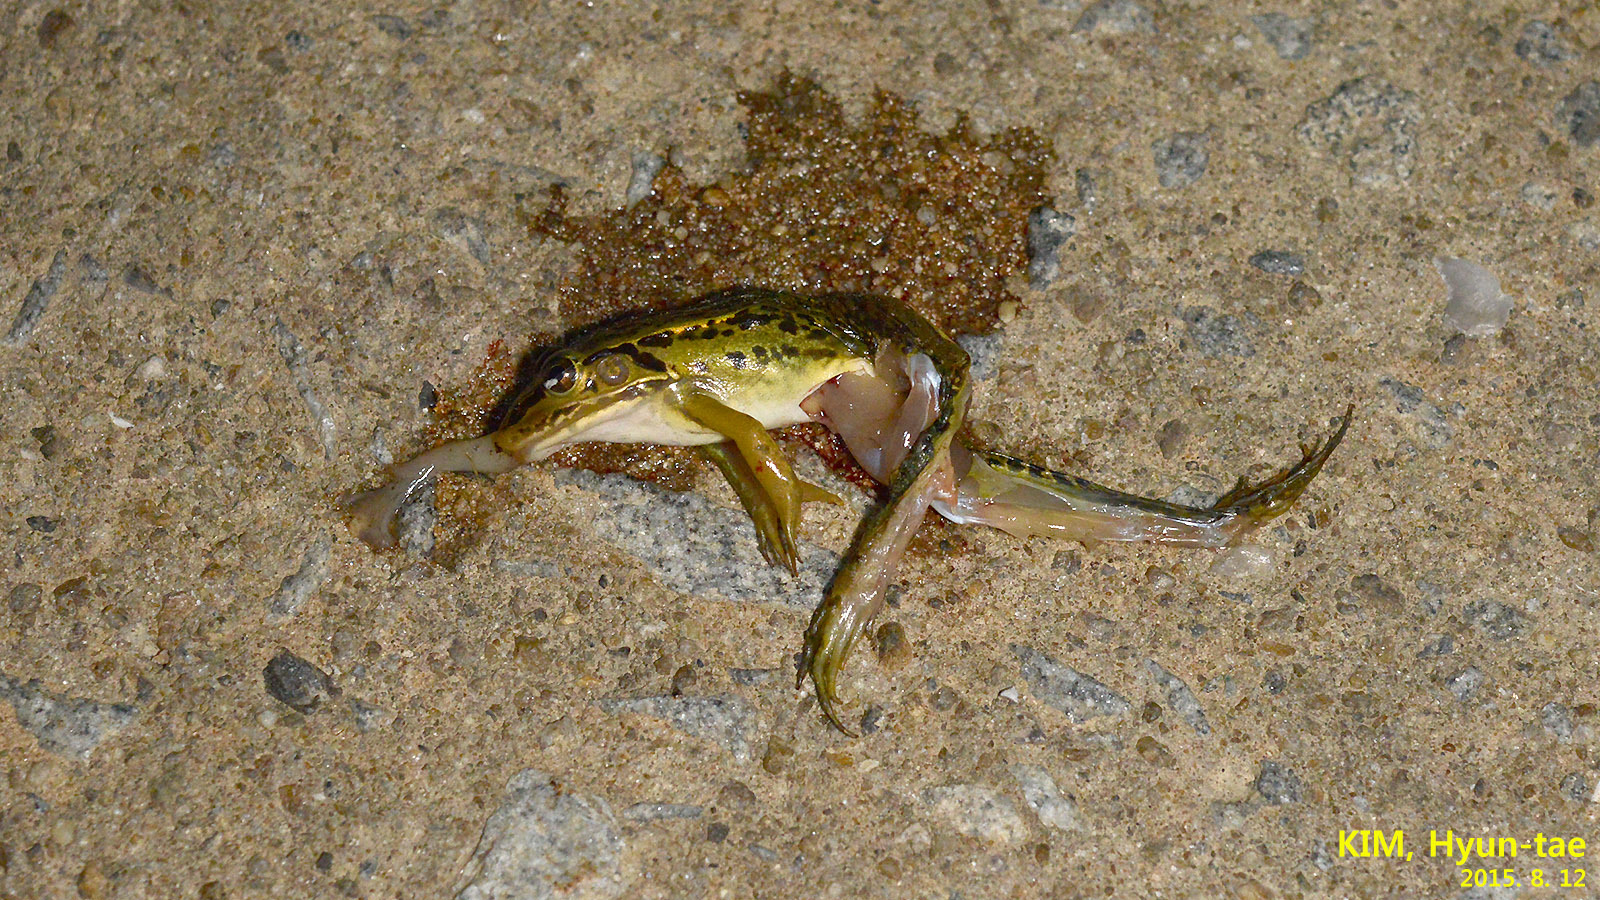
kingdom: Animalia
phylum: Chordata
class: Amphibia
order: Anura
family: Ranidae
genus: Pelophylax
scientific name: Pelophylax nigromaculatus
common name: Black-spotted pond frog
